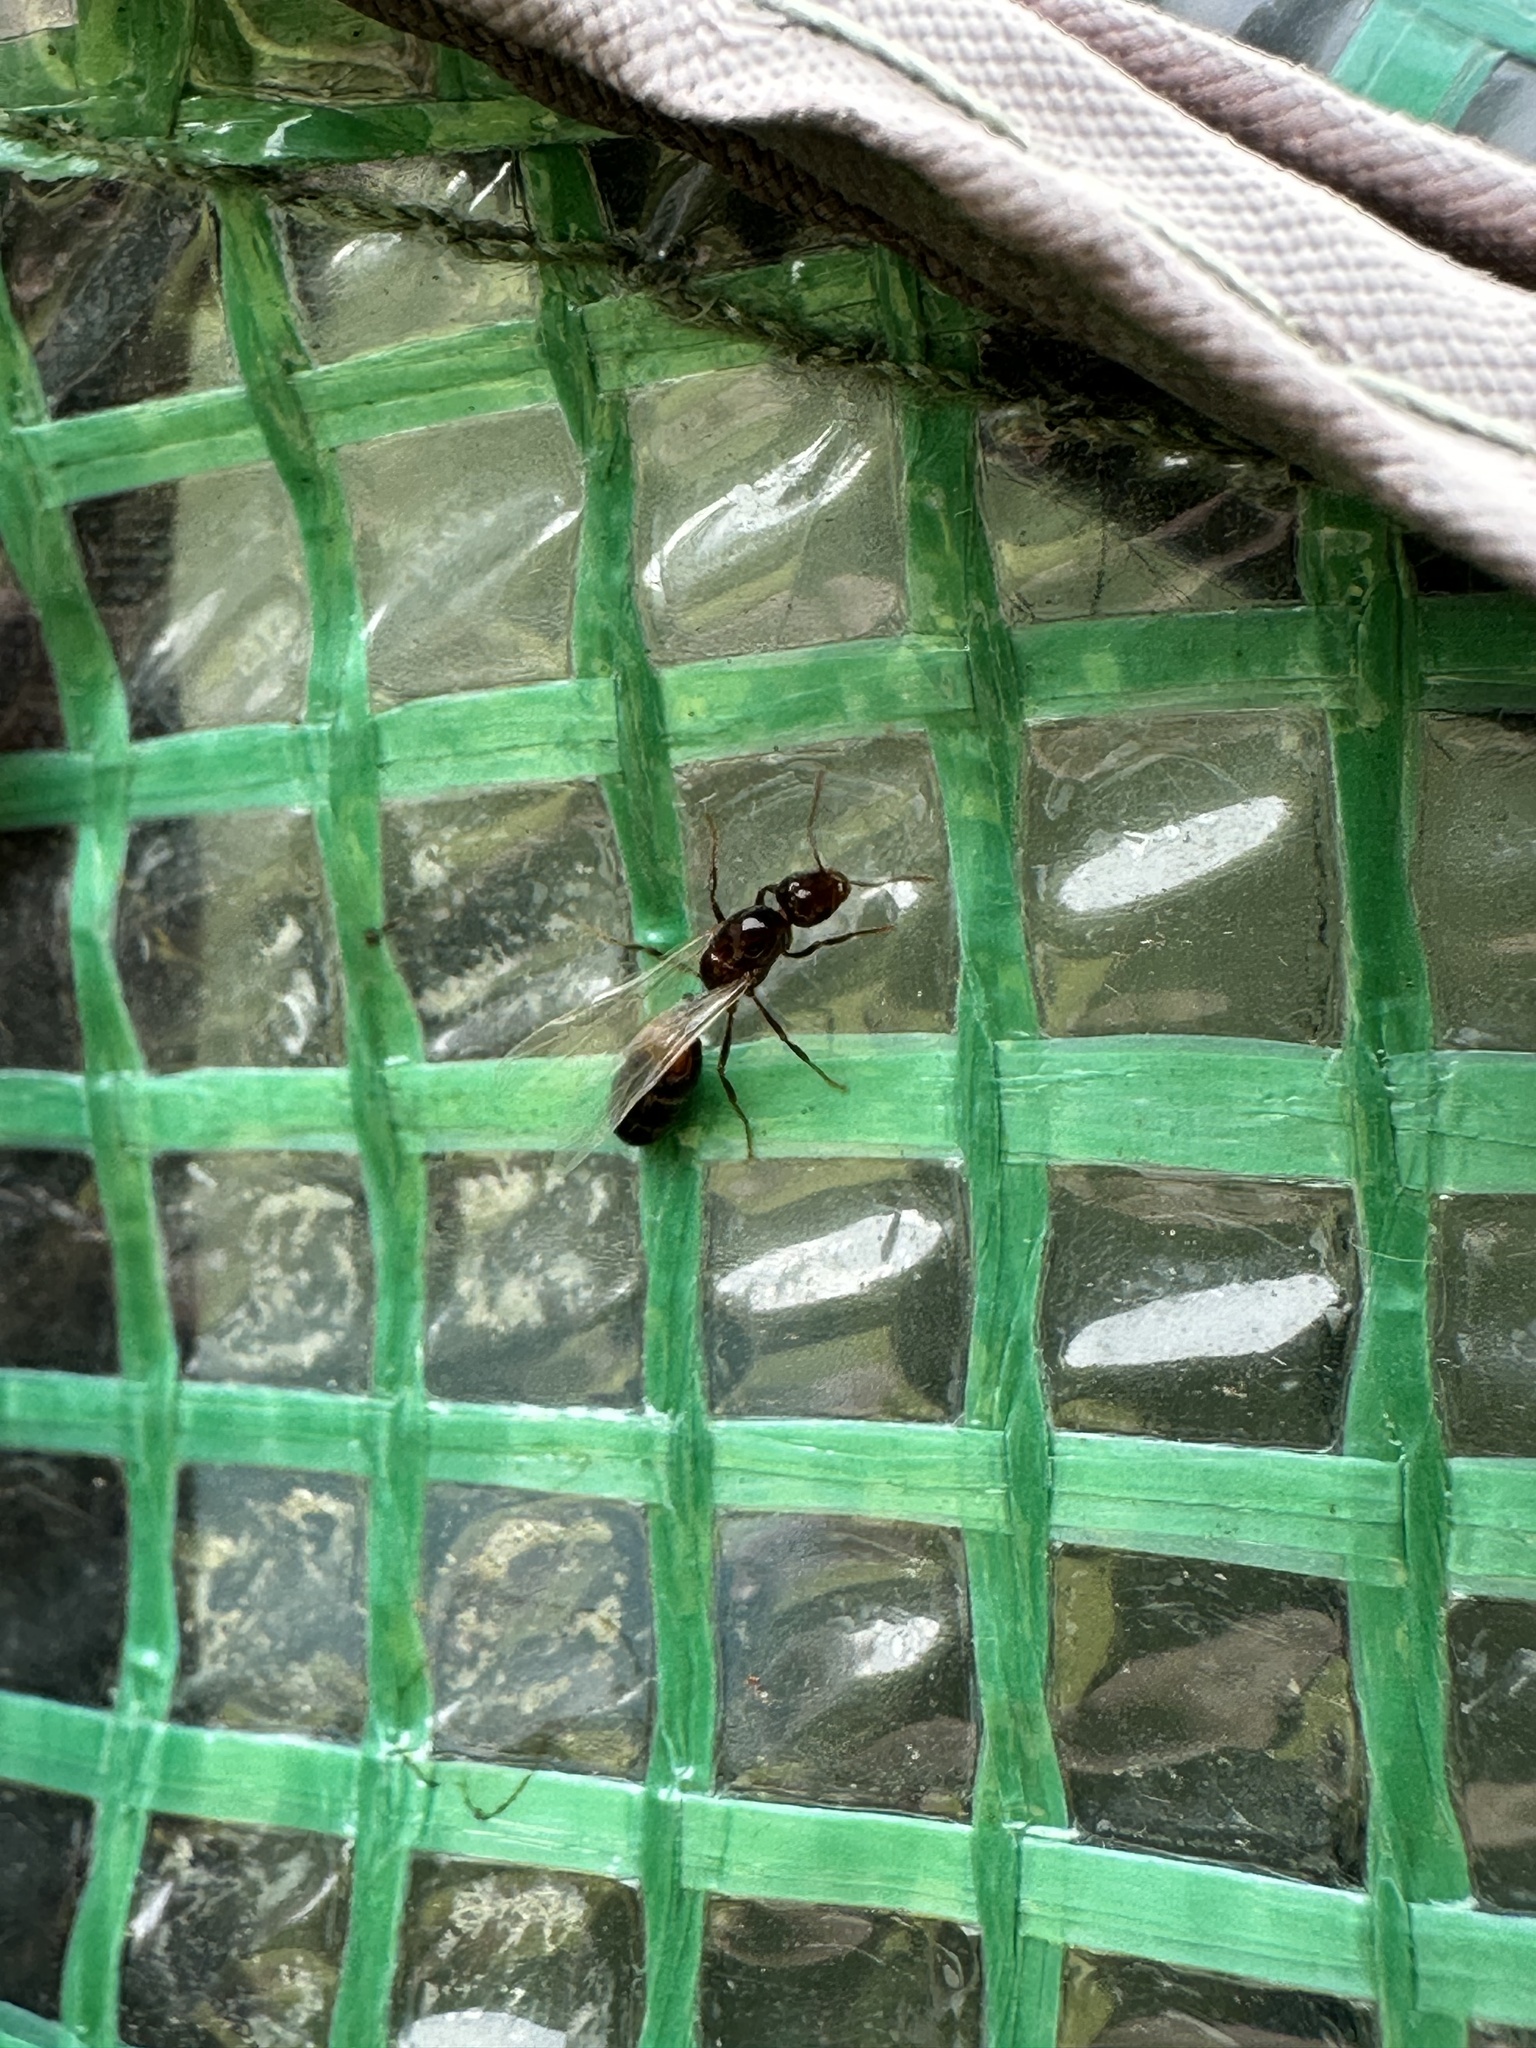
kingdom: Animalia
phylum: Arthropoda
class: Insecta
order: Hymenoptera
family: Formicidae
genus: Solenopsis
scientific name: Solenopsis
